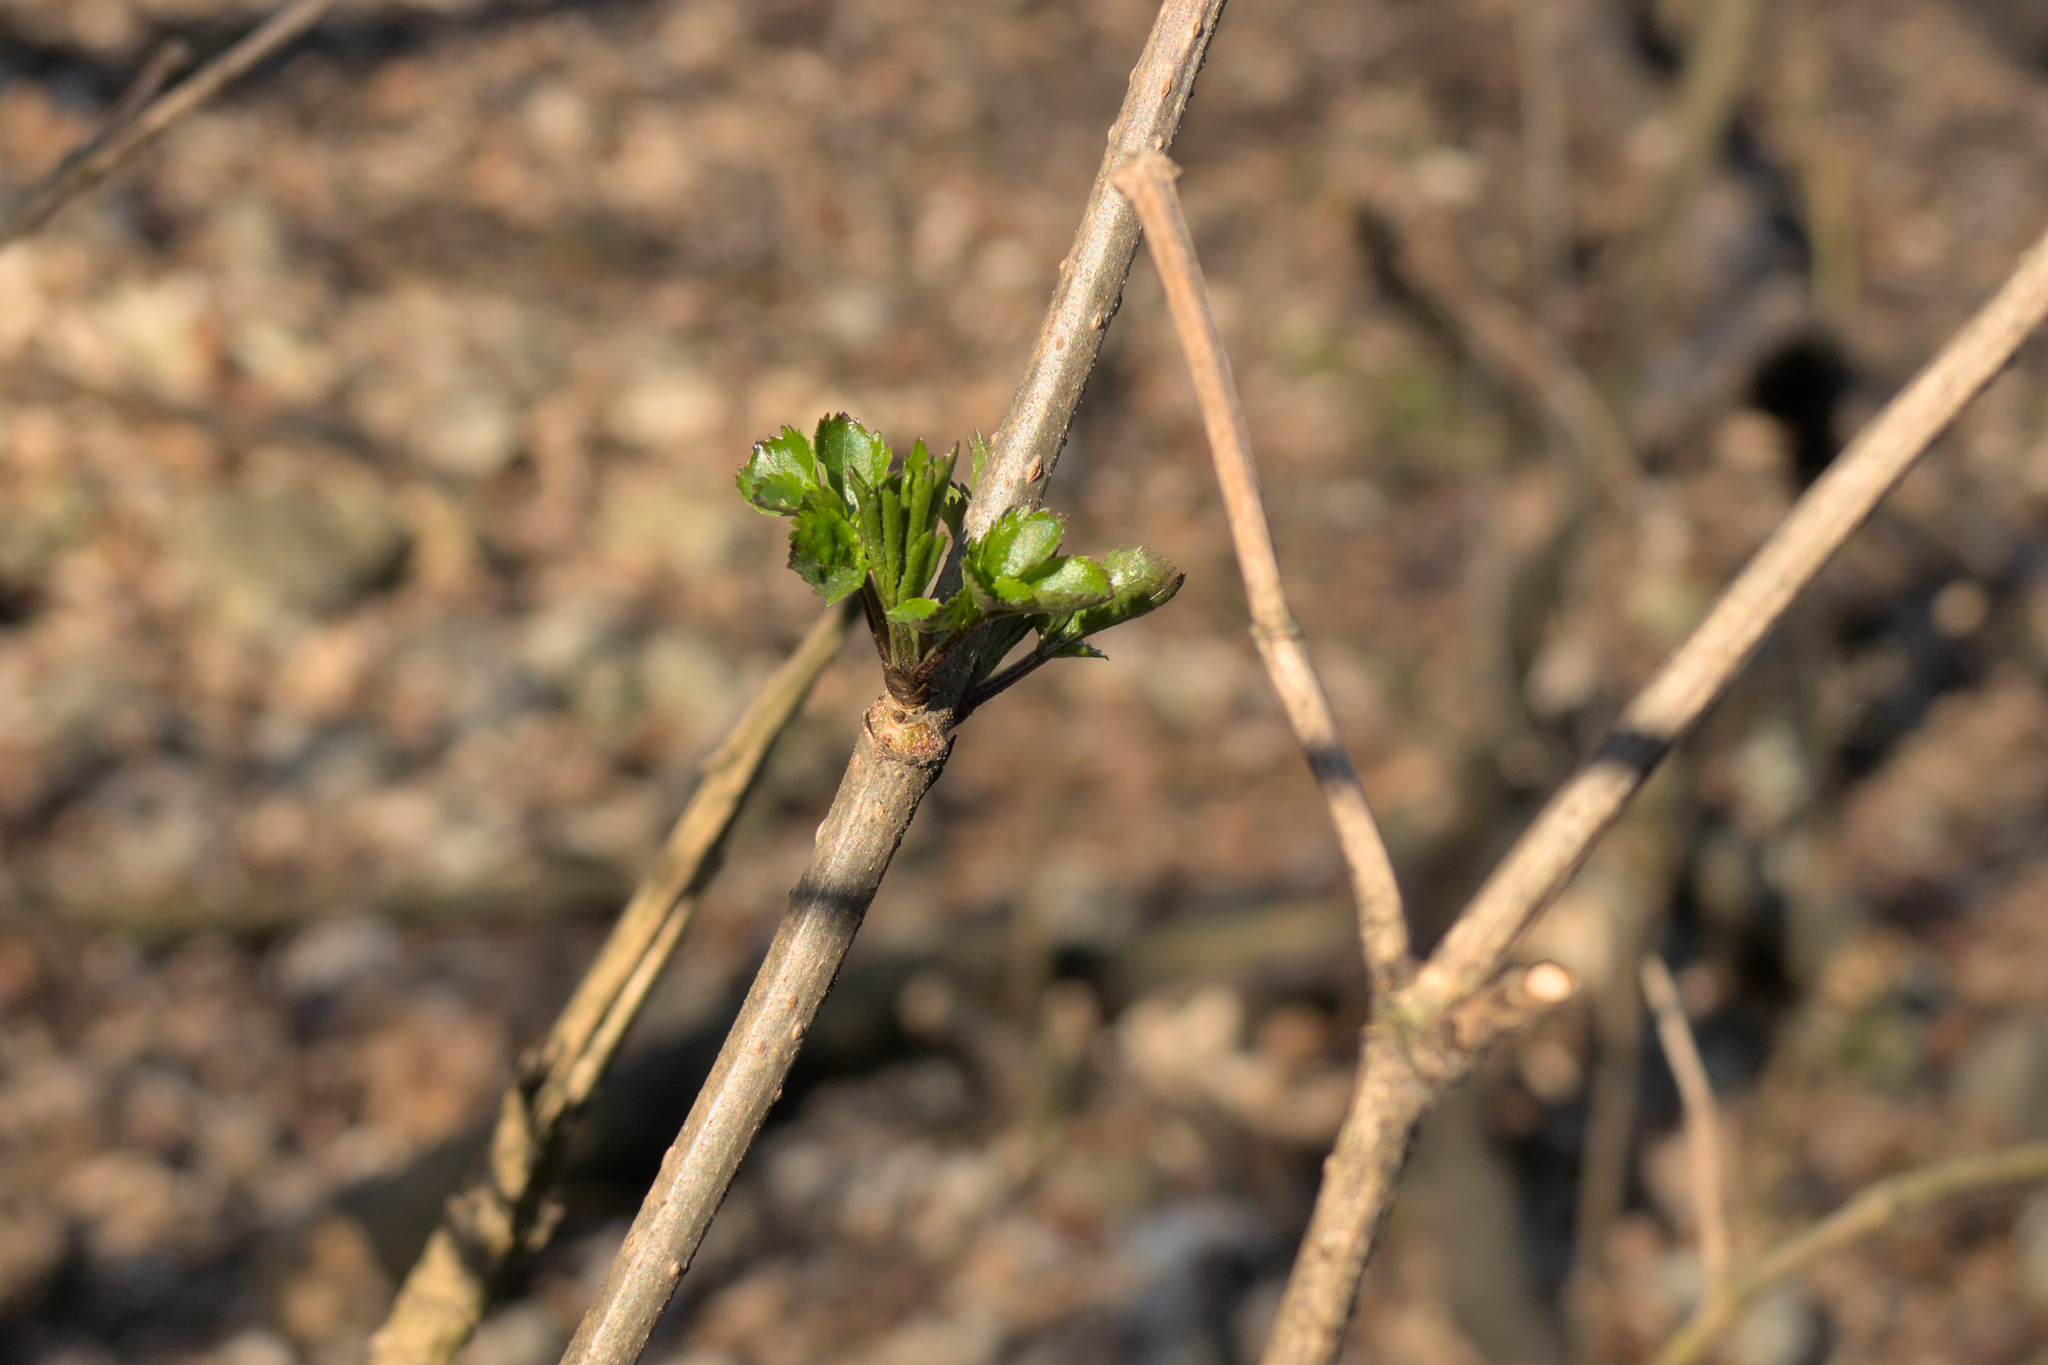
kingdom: Plantae
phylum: Tracheophyta
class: Magnoliopsida
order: Dipsacales
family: Viburnaceae
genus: Sambucus
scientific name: Sambucus nigra
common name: Elder
